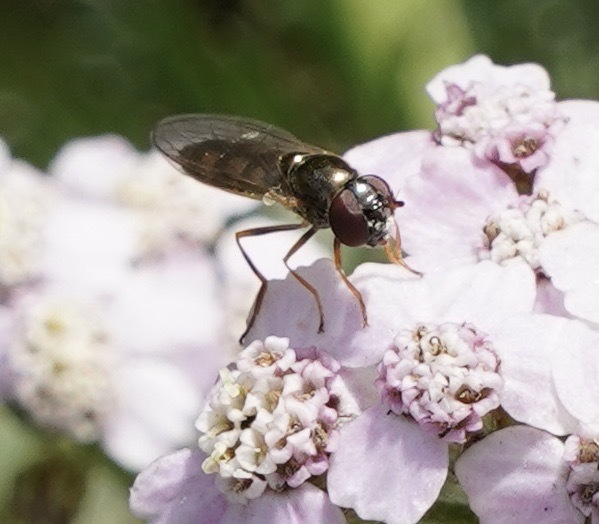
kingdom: Animalia
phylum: Arthropoda
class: Insecta
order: Diptera
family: Syrphidae
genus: Melanostoma
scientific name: Melanostoma
